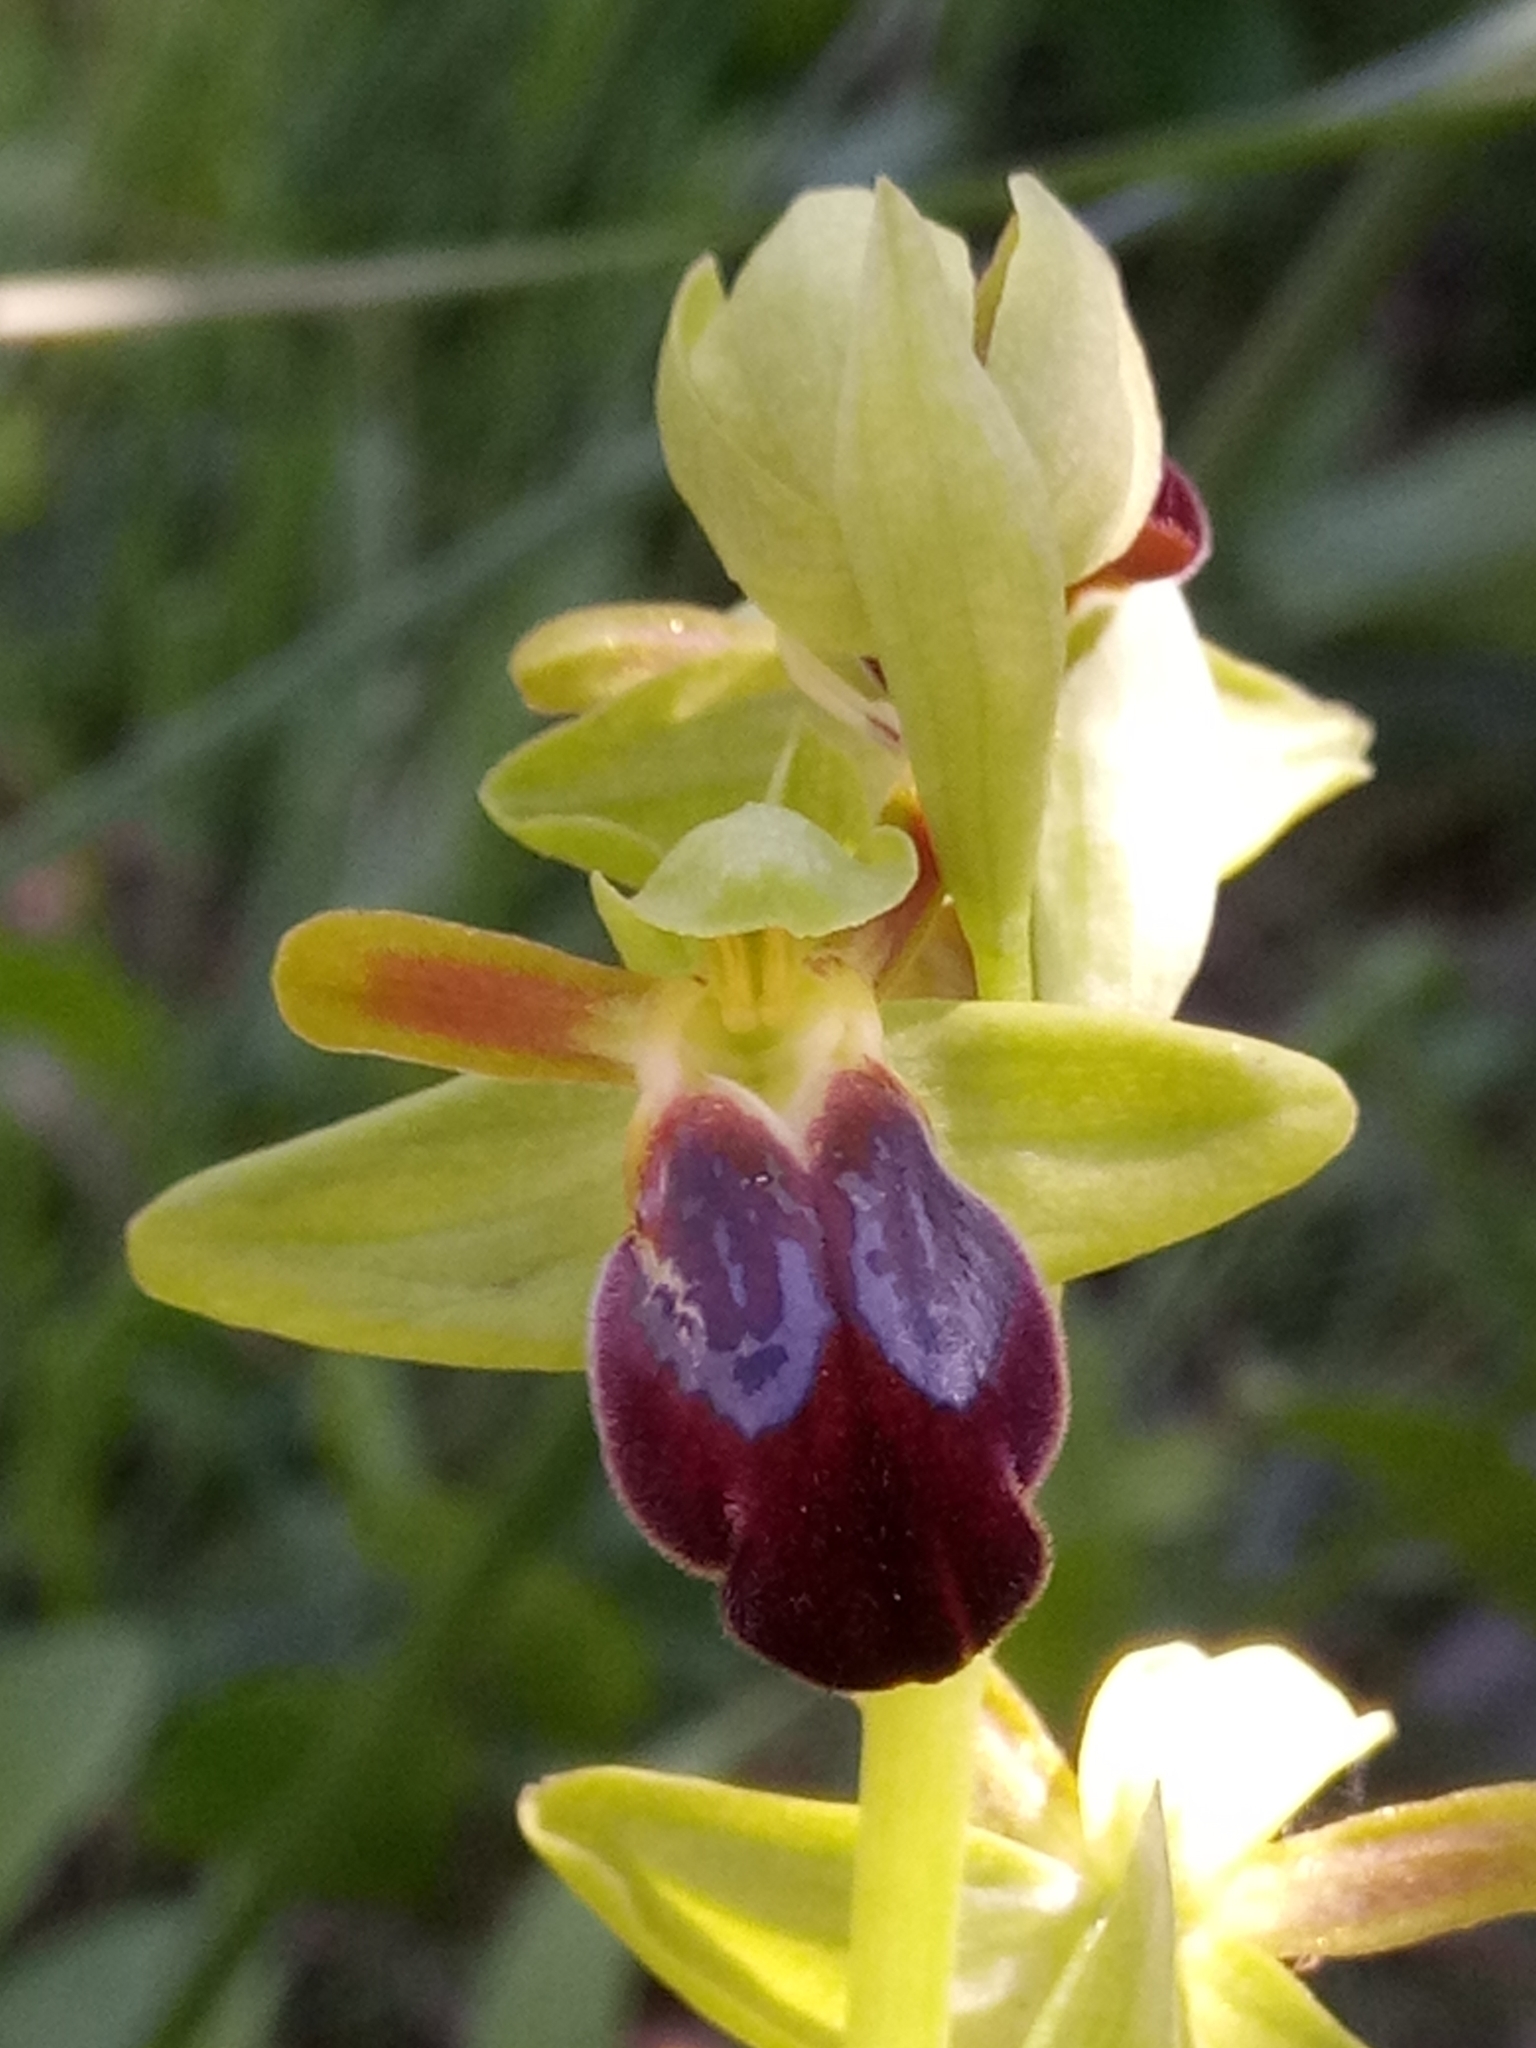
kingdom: Plantae
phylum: Tracheophyta
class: Liliopsida
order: Asparagales
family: Orchidaceae
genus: Ophrys
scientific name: Ophrys fusca
